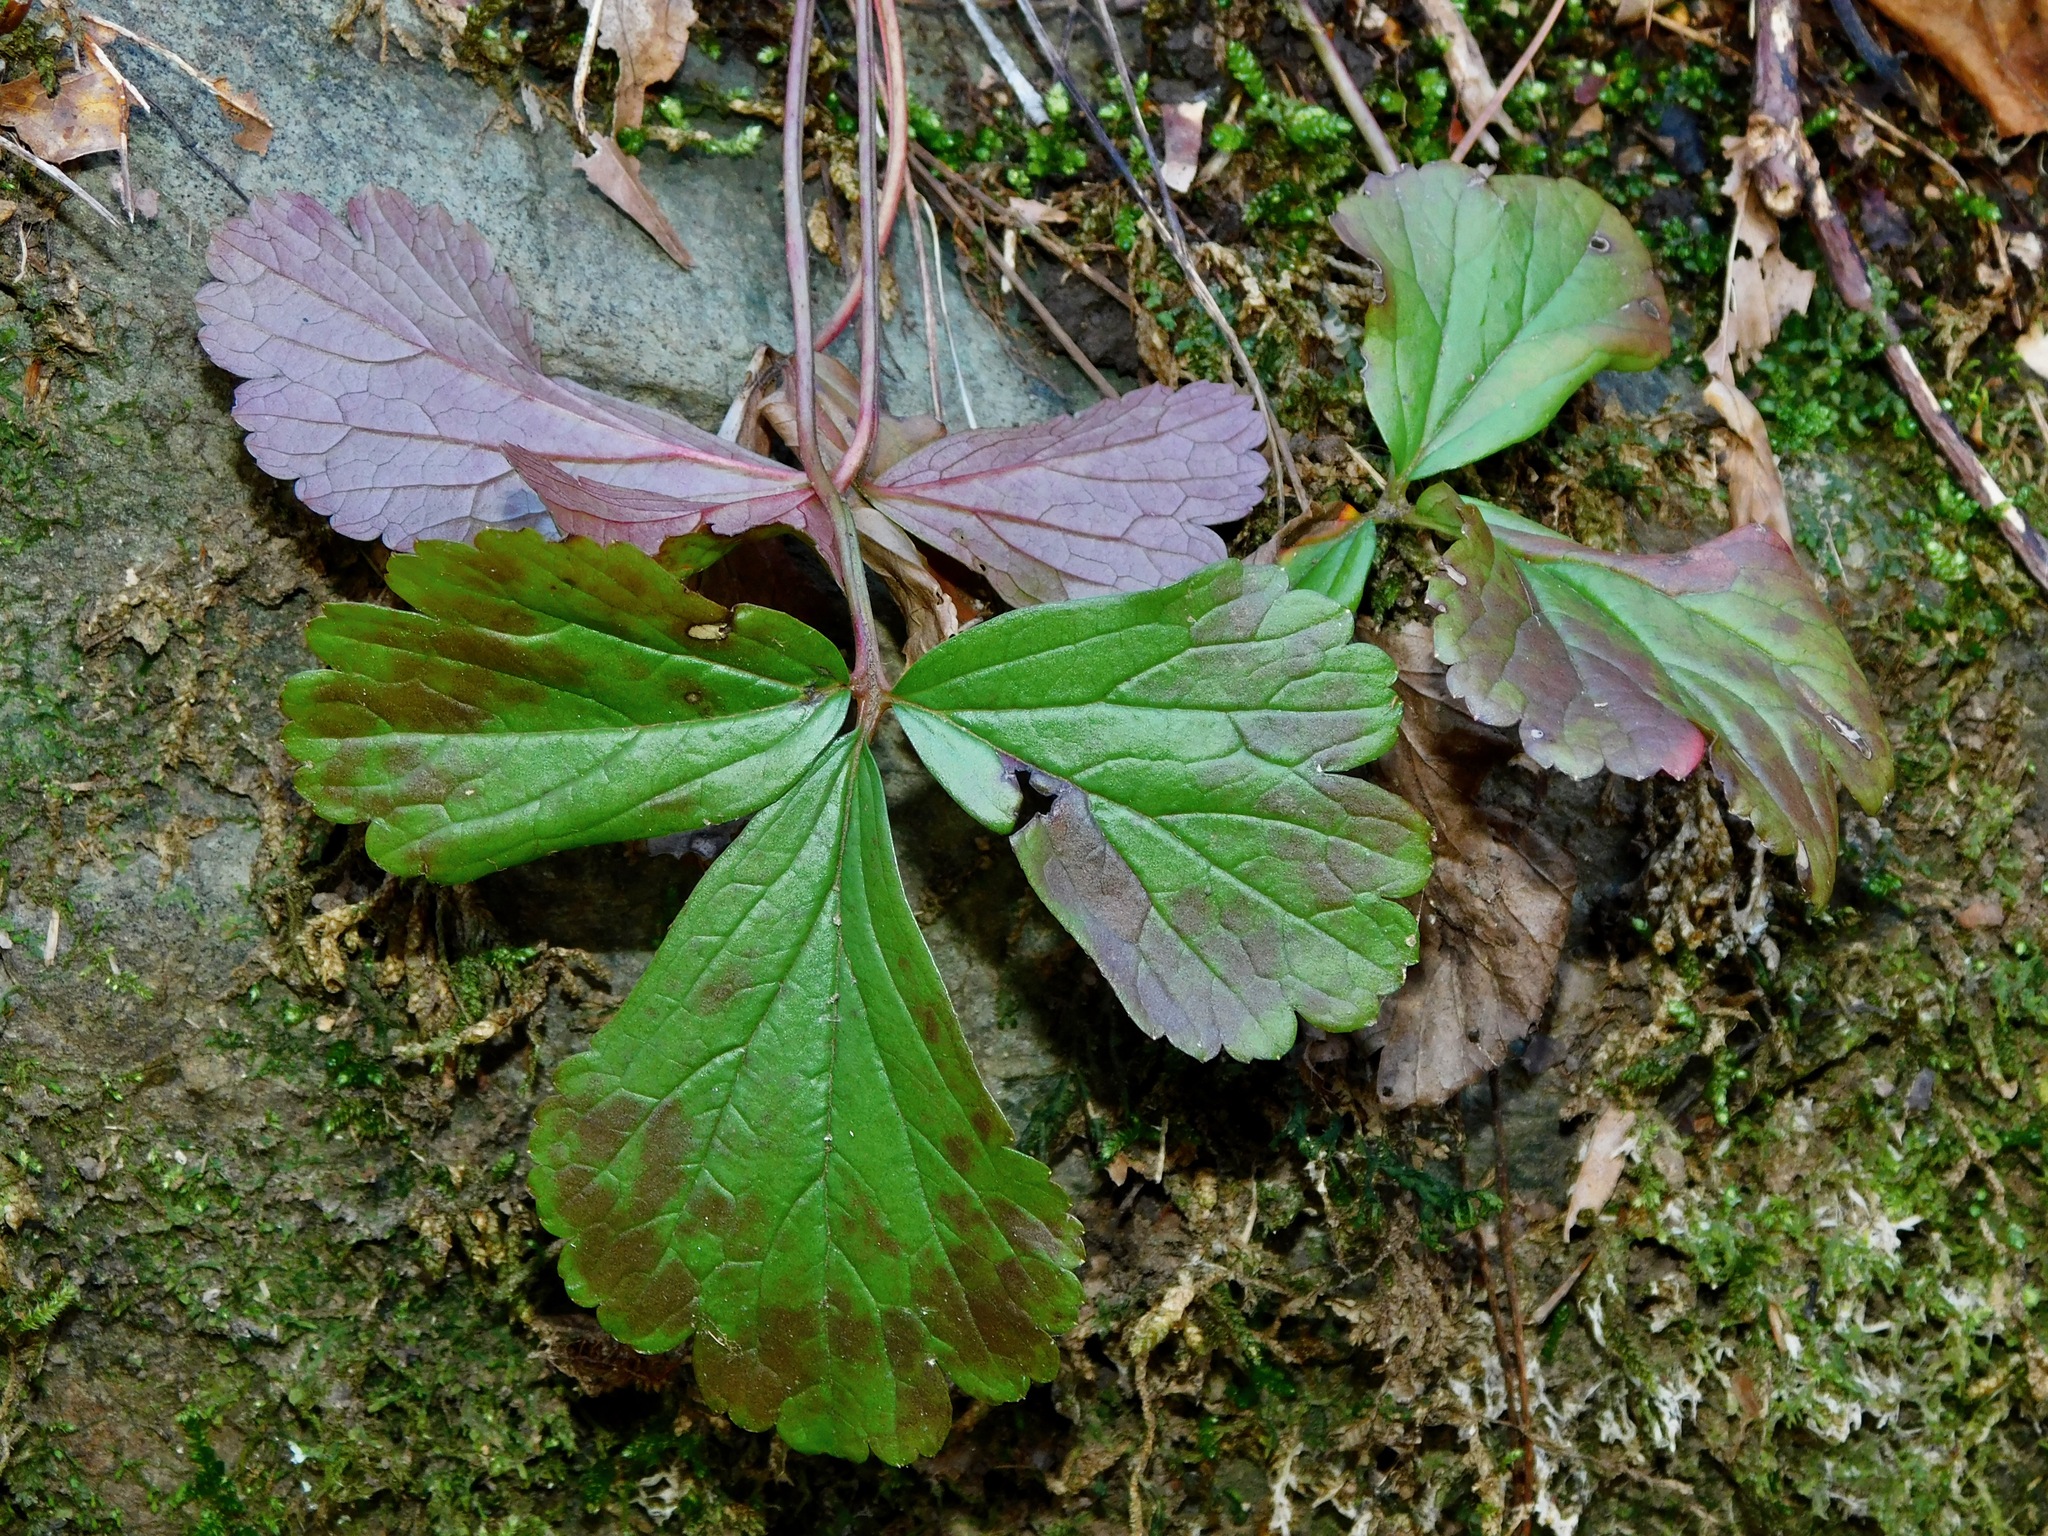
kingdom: Plantae
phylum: Tracheophyta
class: Magnoliopsida
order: Rosales
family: Rosaceae
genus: Geum
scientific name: Geum fragarioides
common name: Appalachian barren strawberry
